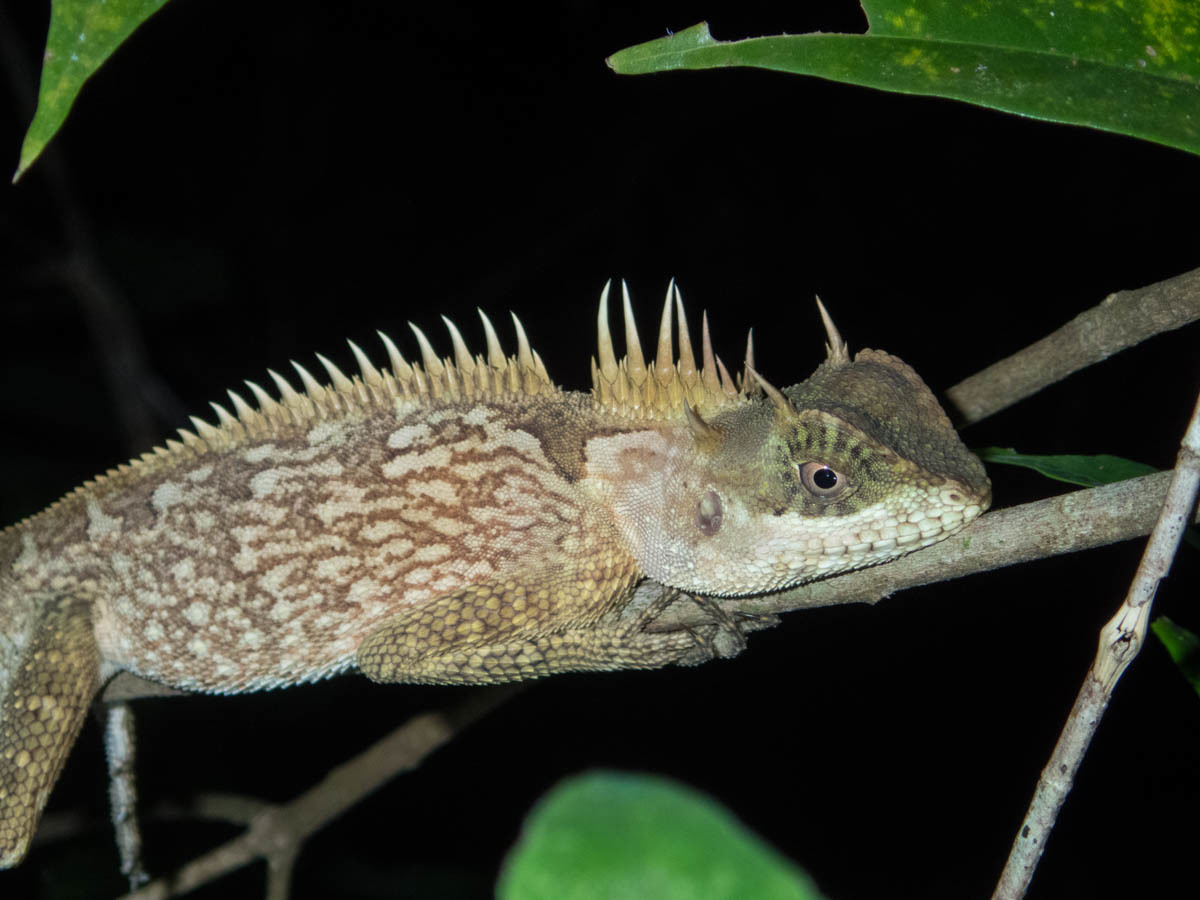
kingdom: Animalia
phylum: Chordata
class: Squamata
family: Agamidae
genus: Acanthosaura
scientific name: Acanthosaura cardamomensis
